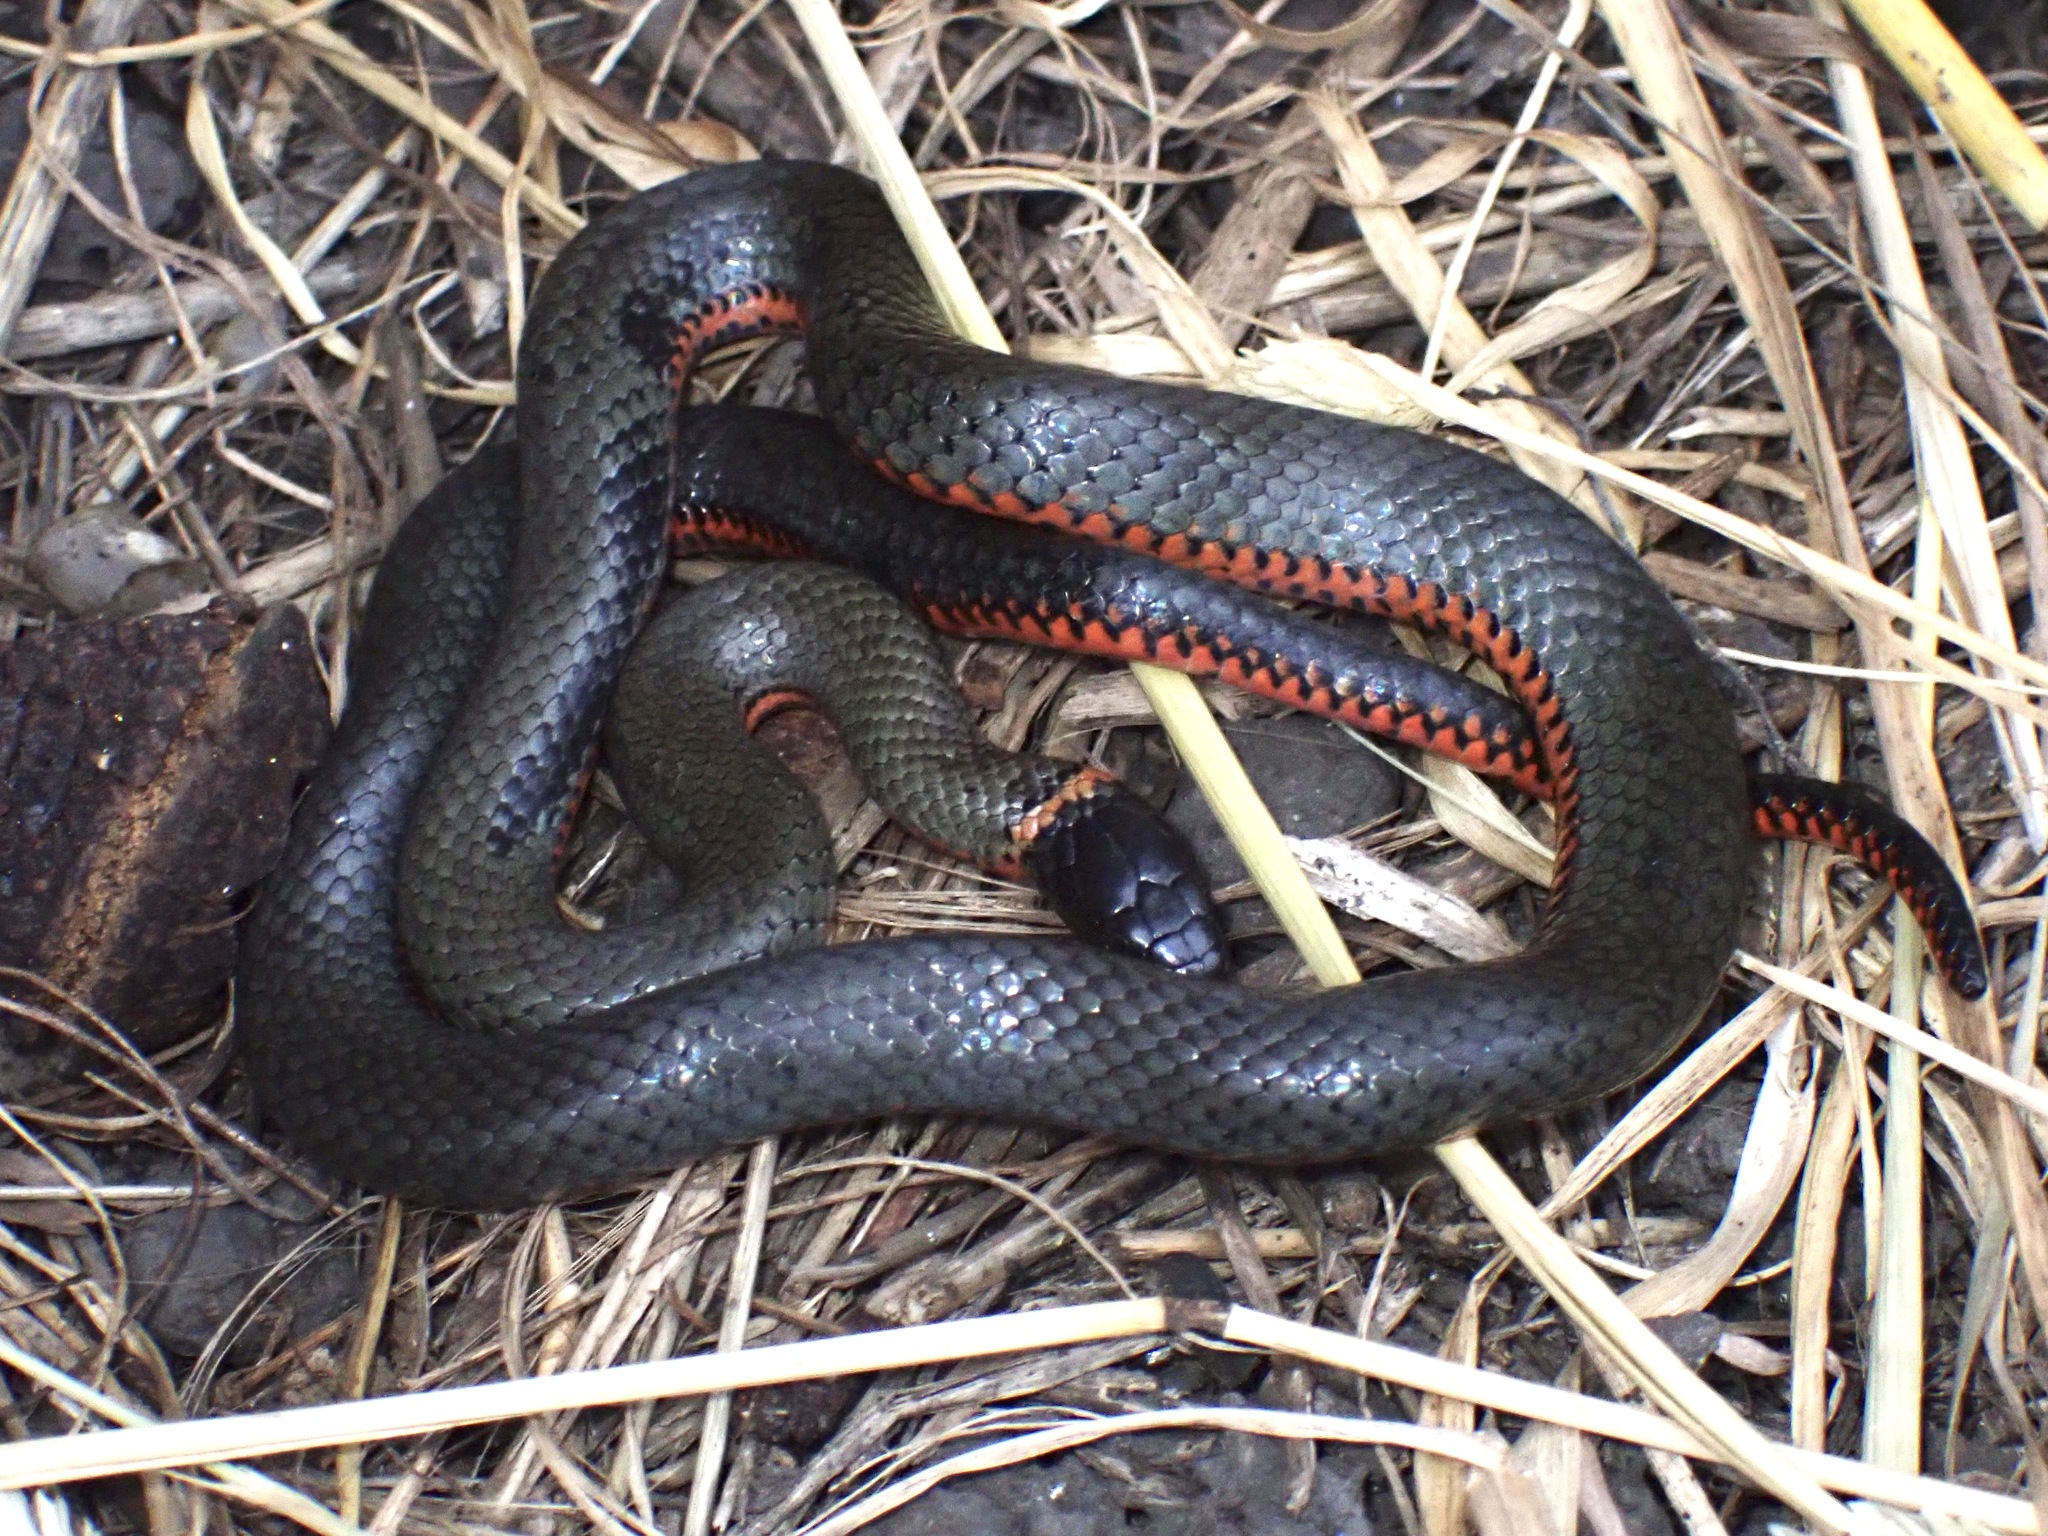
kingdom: Animalia
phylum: Chordata
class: Squamata
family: Colubridae
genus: Diadophis
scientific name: Diadophis punctatus
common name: Ringneck snake
